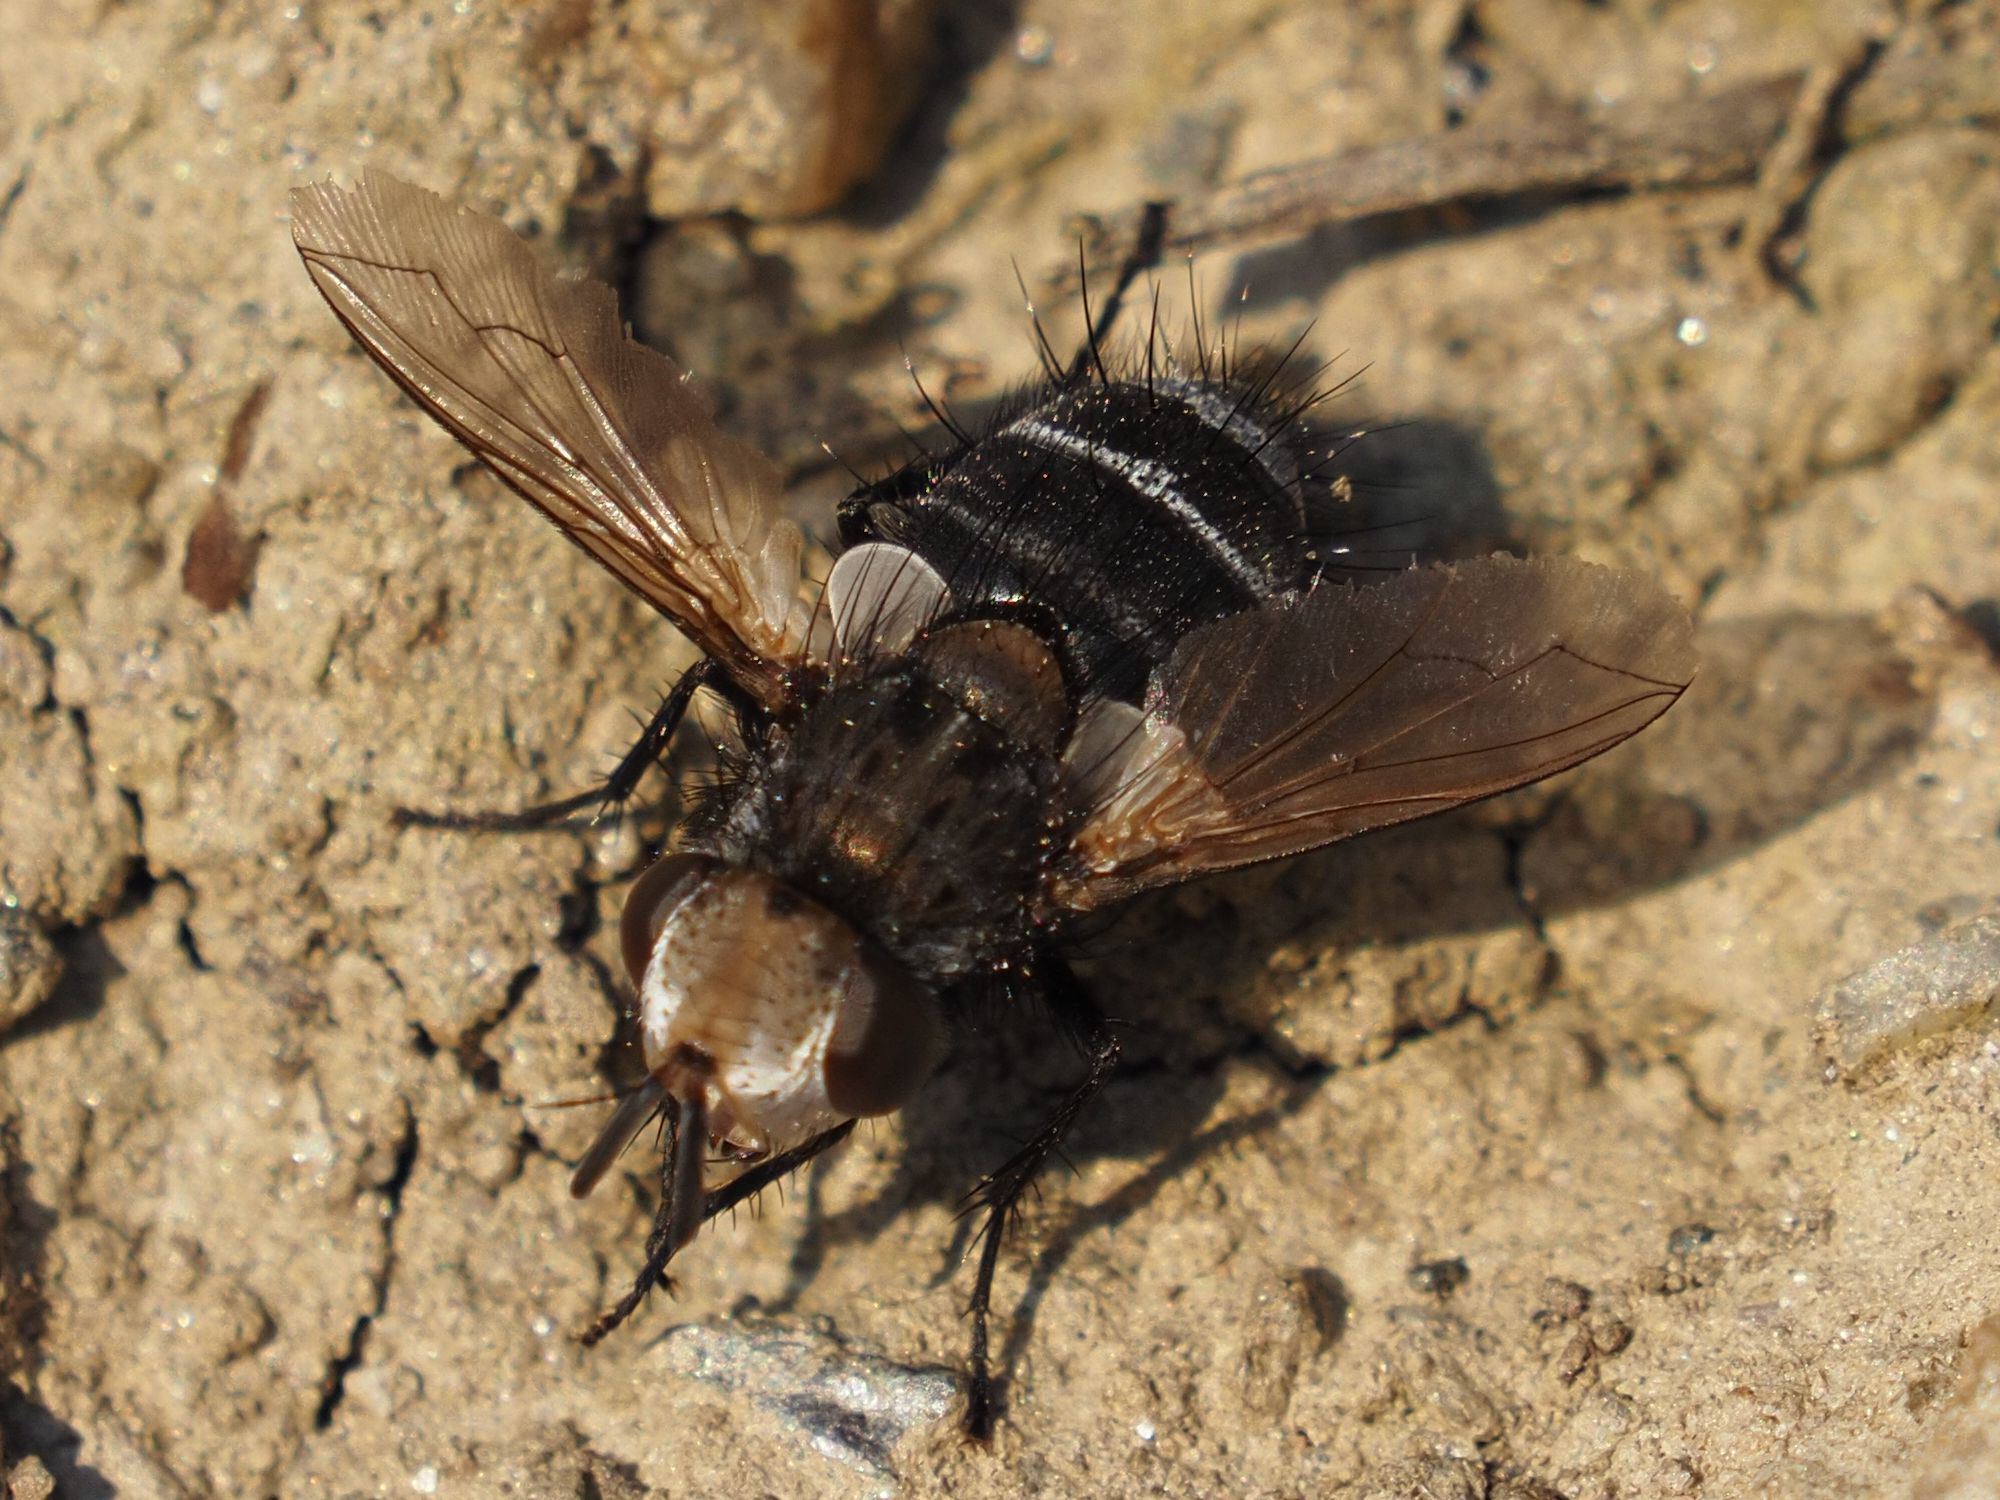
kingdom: Animalia
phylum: Arthropoda
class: Insecta
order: Diptera
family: Tachinidae
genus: Gonia
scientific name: Gonia picea
